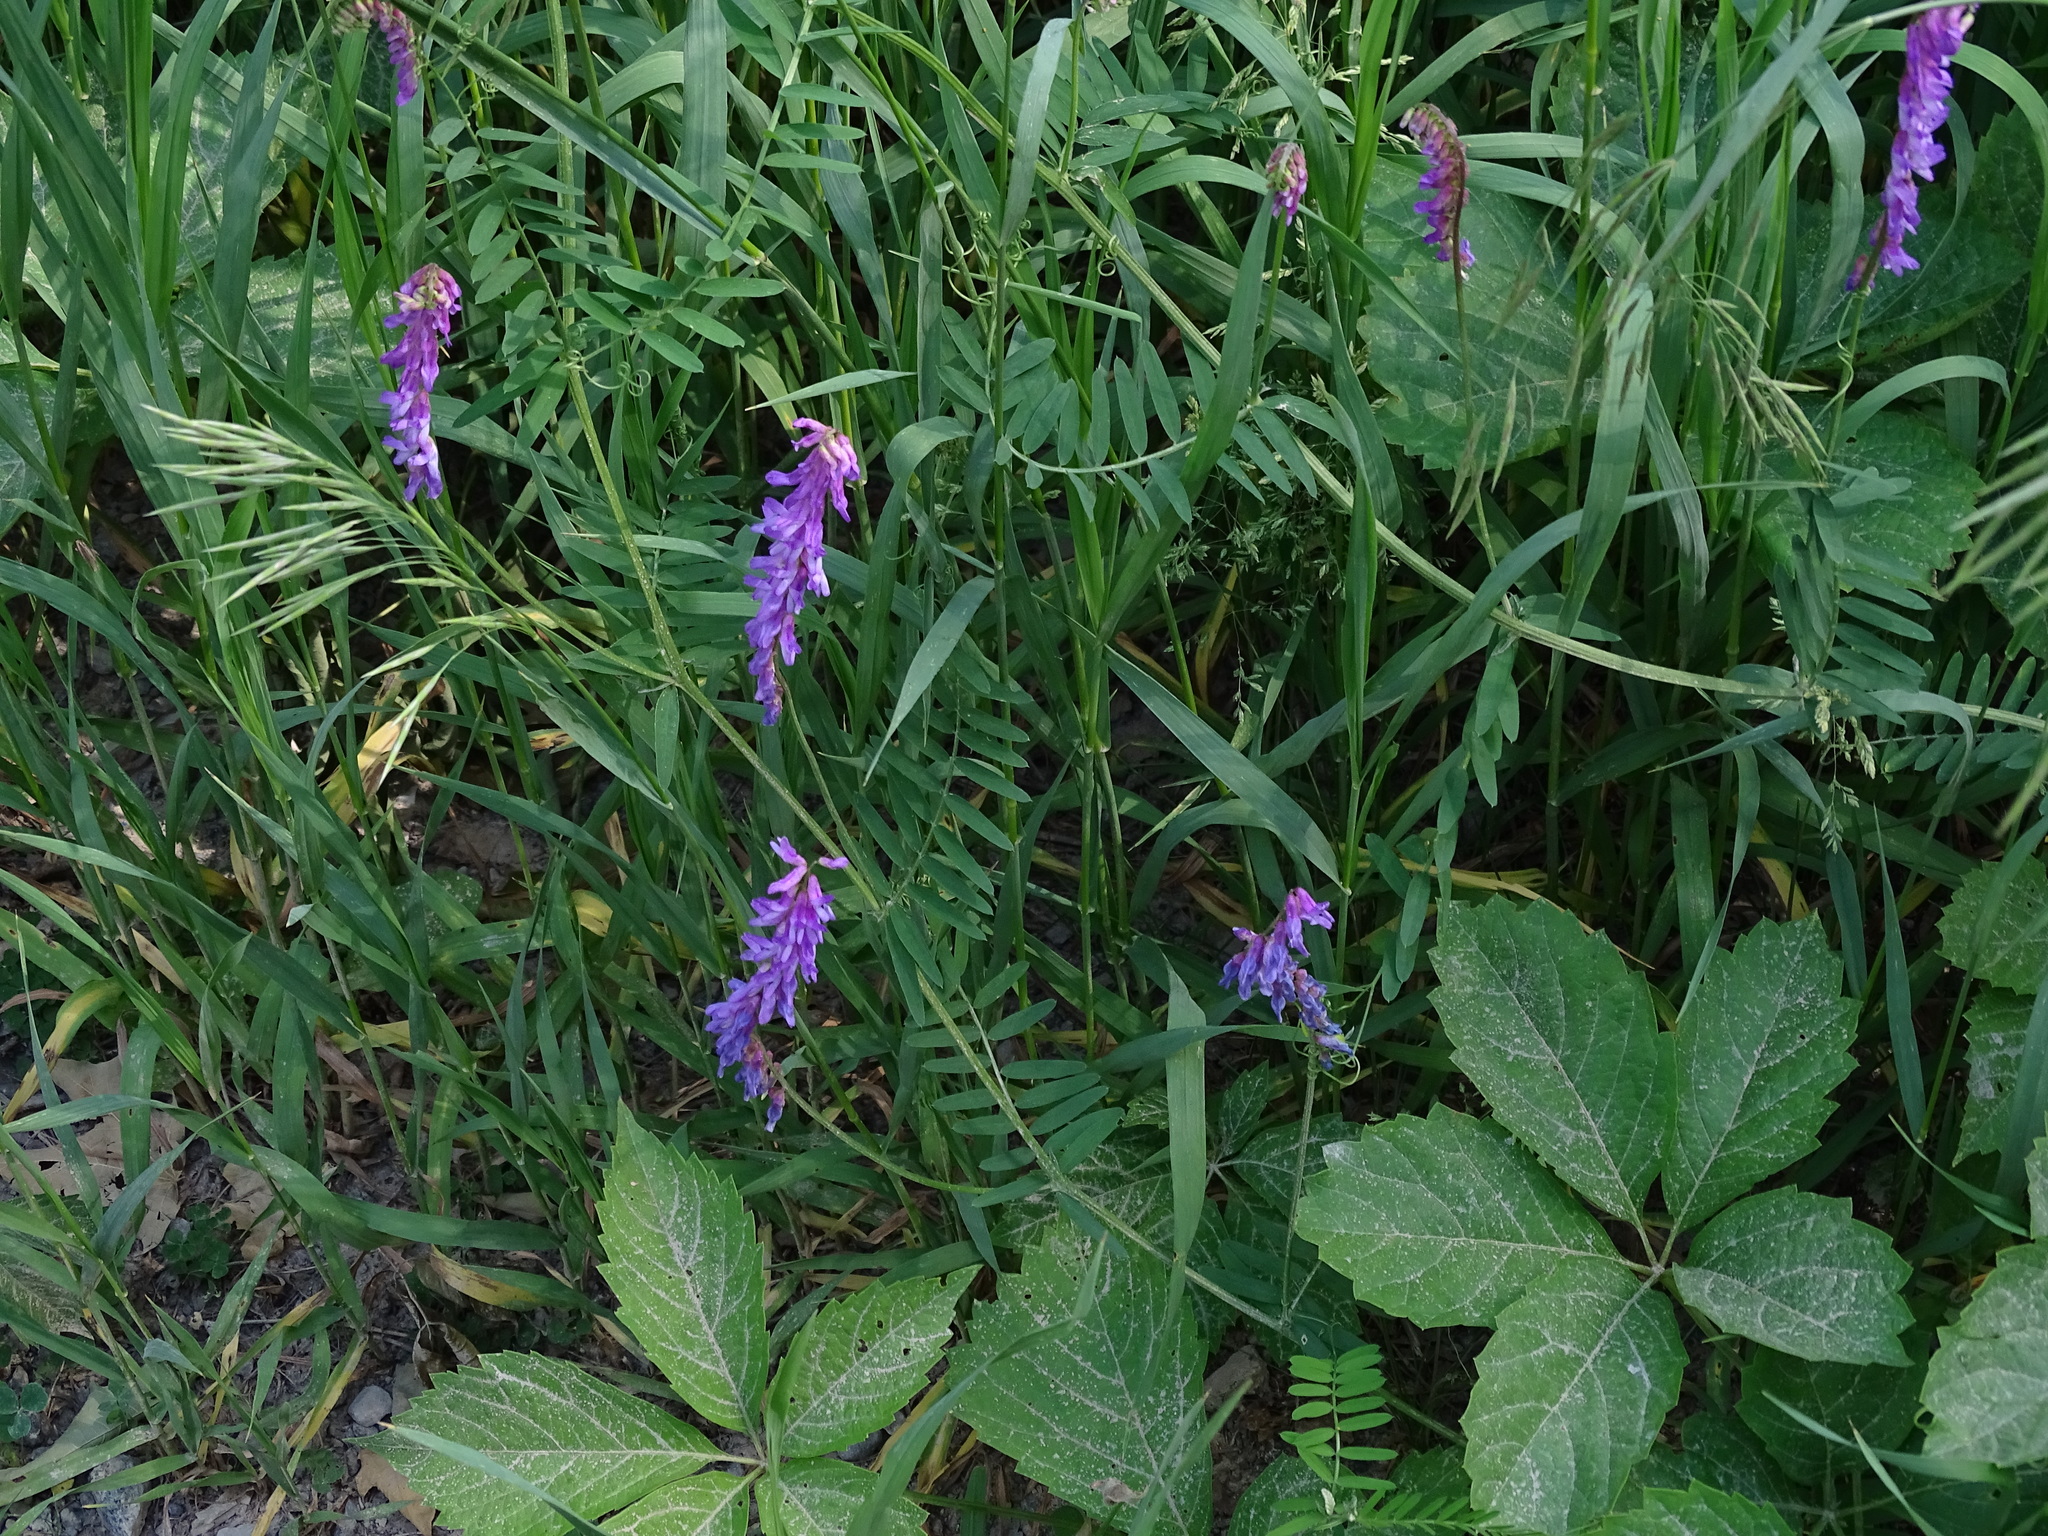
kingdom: Plantae
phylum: Tracheophyta
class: Magnoliopsida
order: Fabales
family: Fabaceae
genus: Vicia
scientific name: Vicia cracca
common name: Bird vetch
